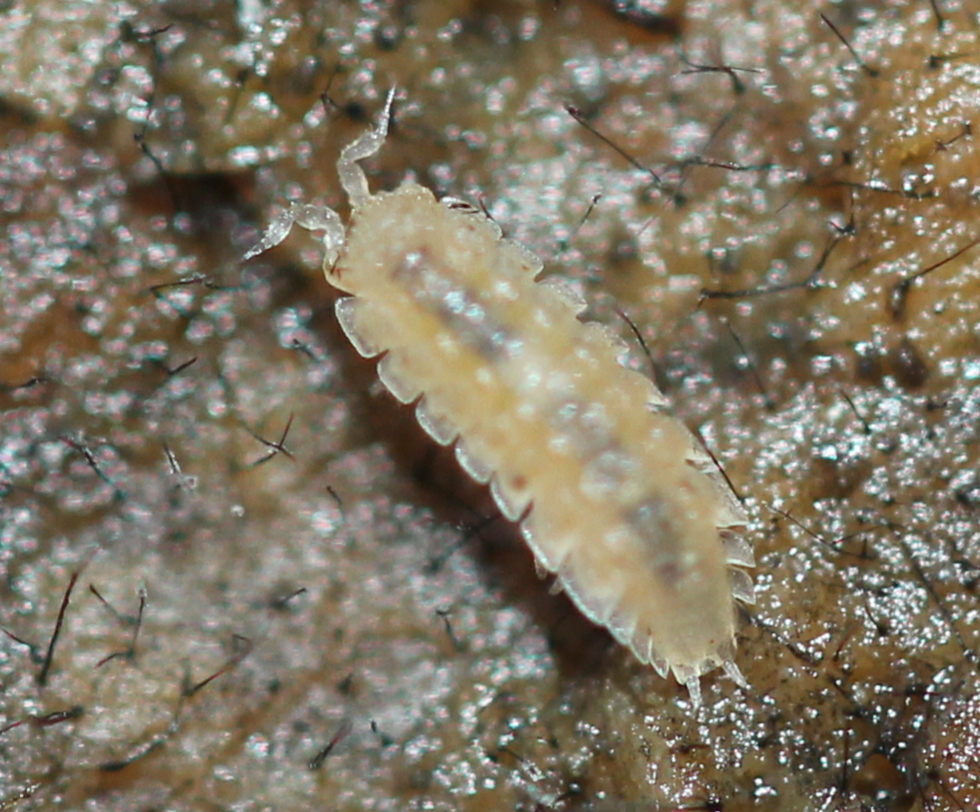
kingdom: Animalia
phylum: Arthropoda
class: Malacostraca
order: Isopoda
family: Trichoniscidae
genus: Haplophthalmus
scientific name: Haplophthalmus danicus
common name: Pillbug
